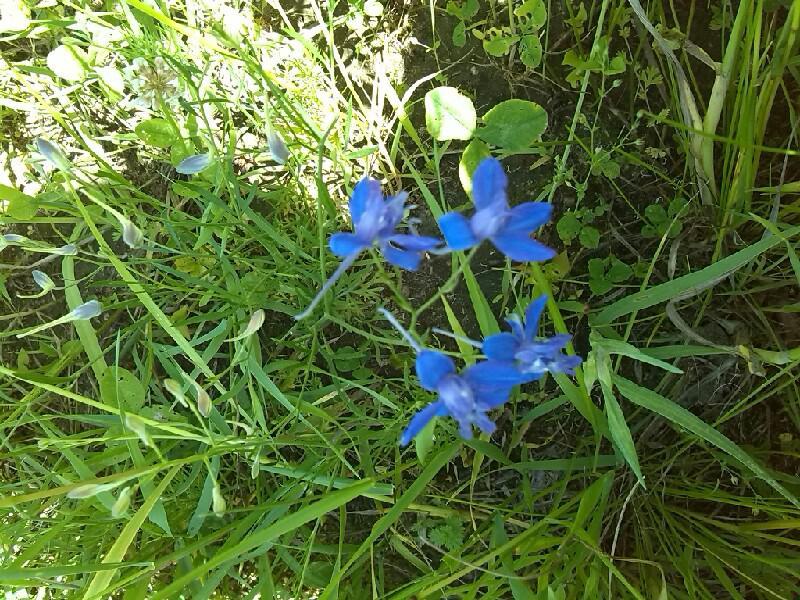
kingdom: Plantae
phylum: Tracheophyta
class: Magnoliopsida
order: Ranunculales
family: Ranunculaceae
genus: Delphinium
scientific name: Delphinium consolida
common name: Branching larkspur
